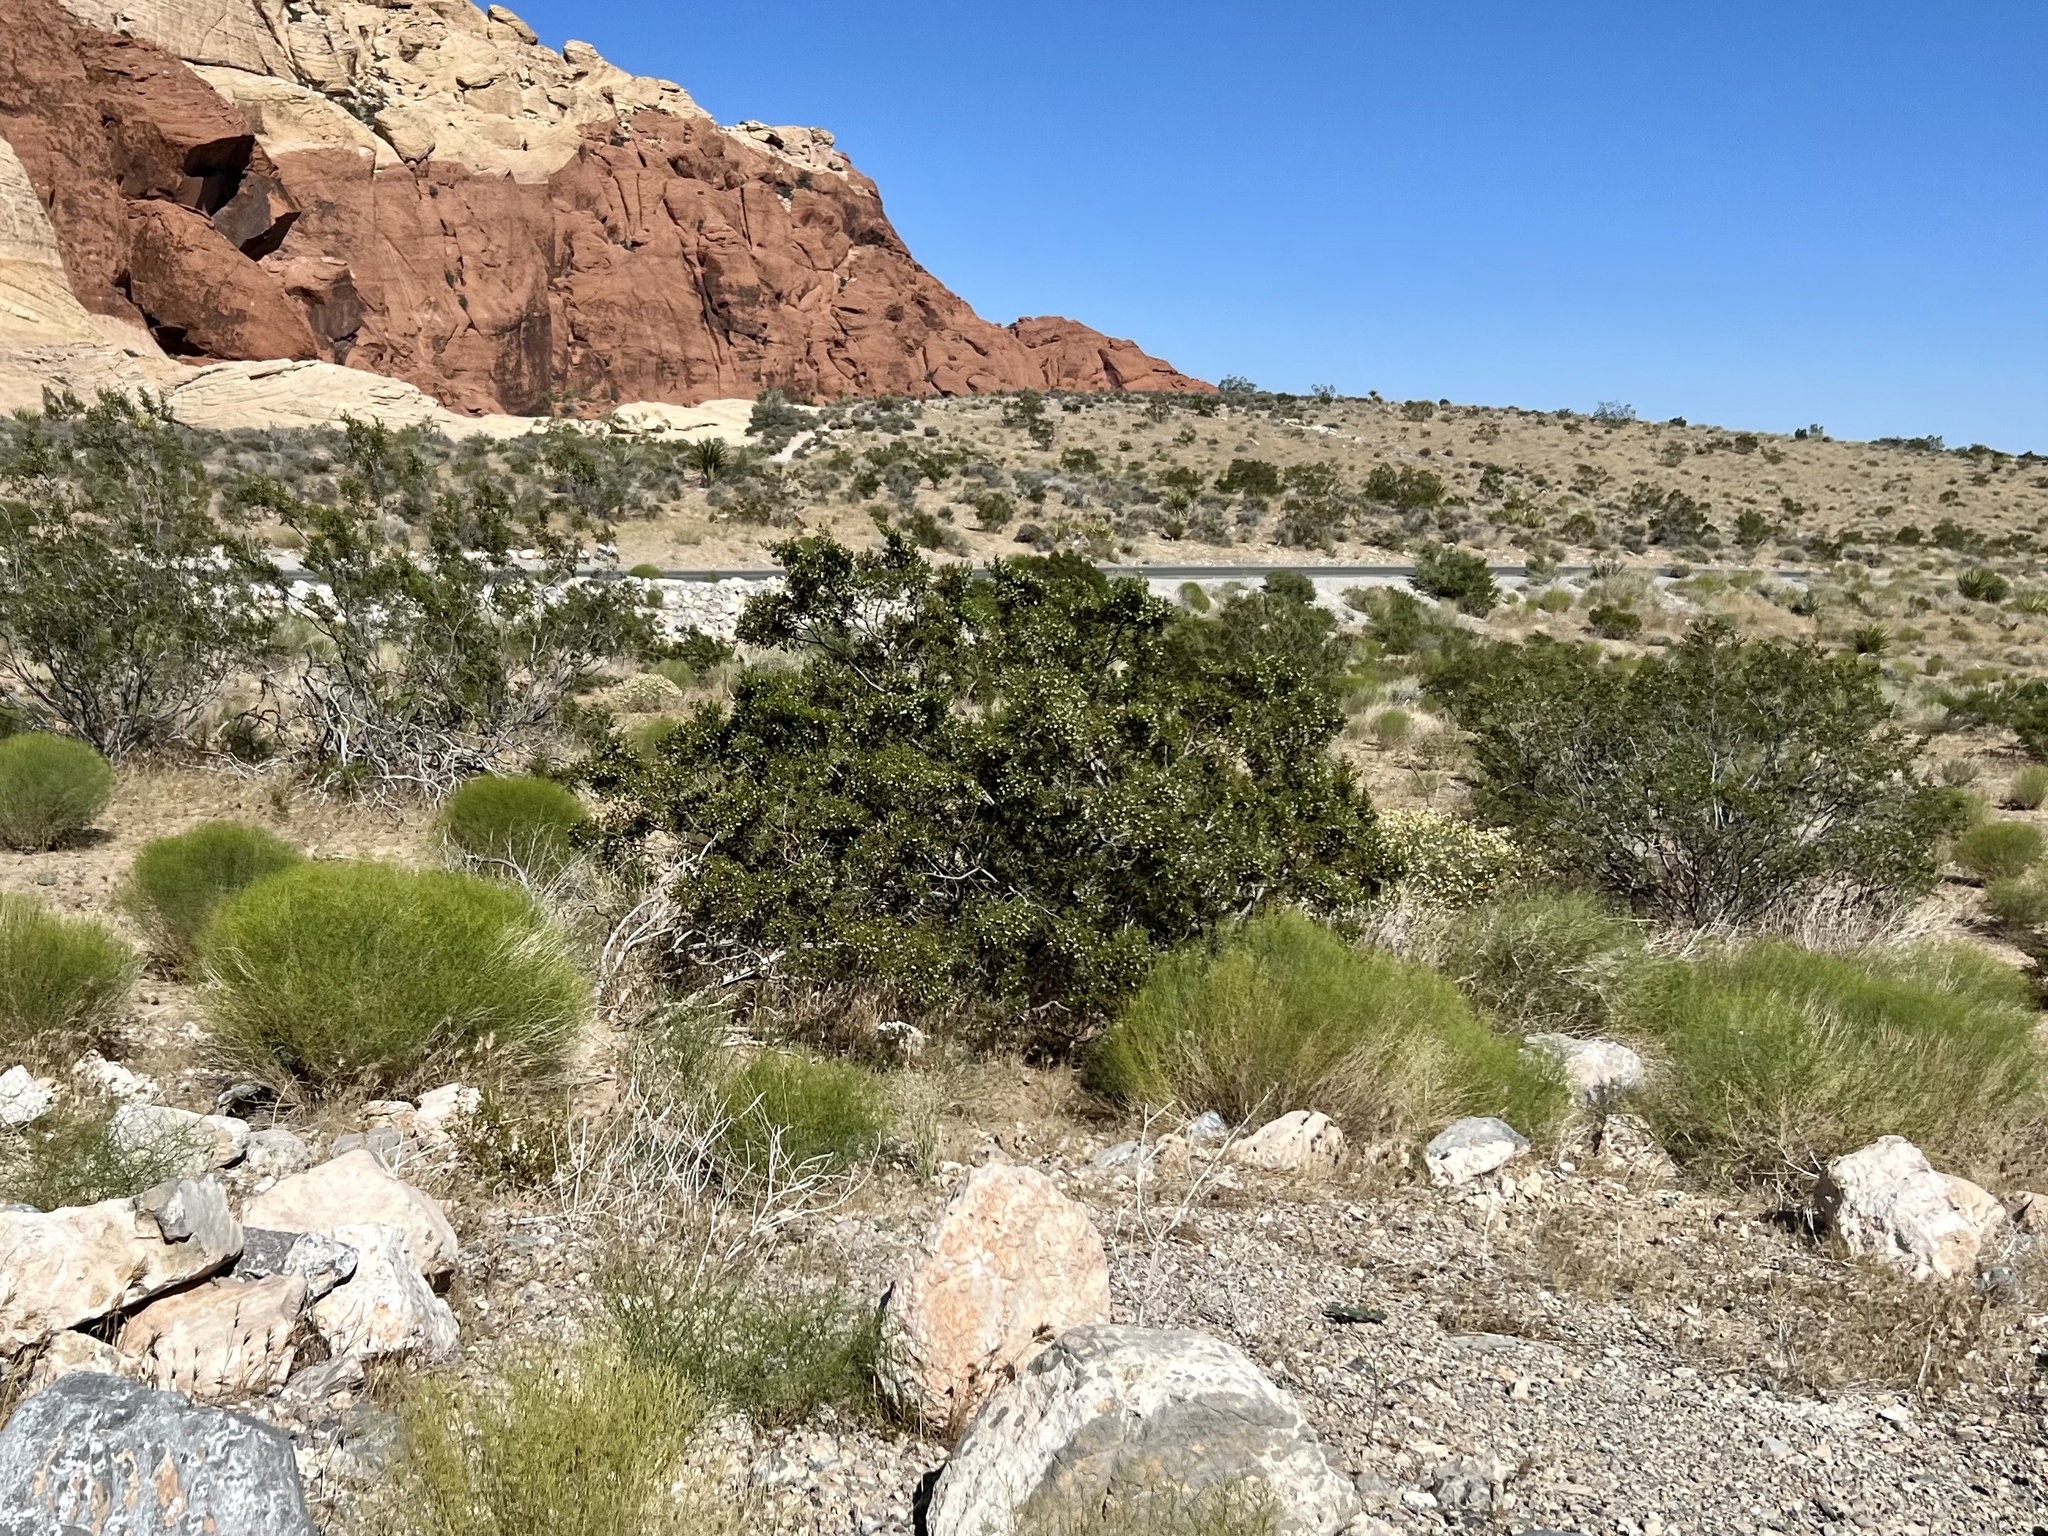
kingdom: Plantae
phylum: Tracheophyta
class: Magnoliopsida
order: Zygophyllales
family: Zygophyllaceae
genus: Larrea
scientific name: Larrea tridentata
